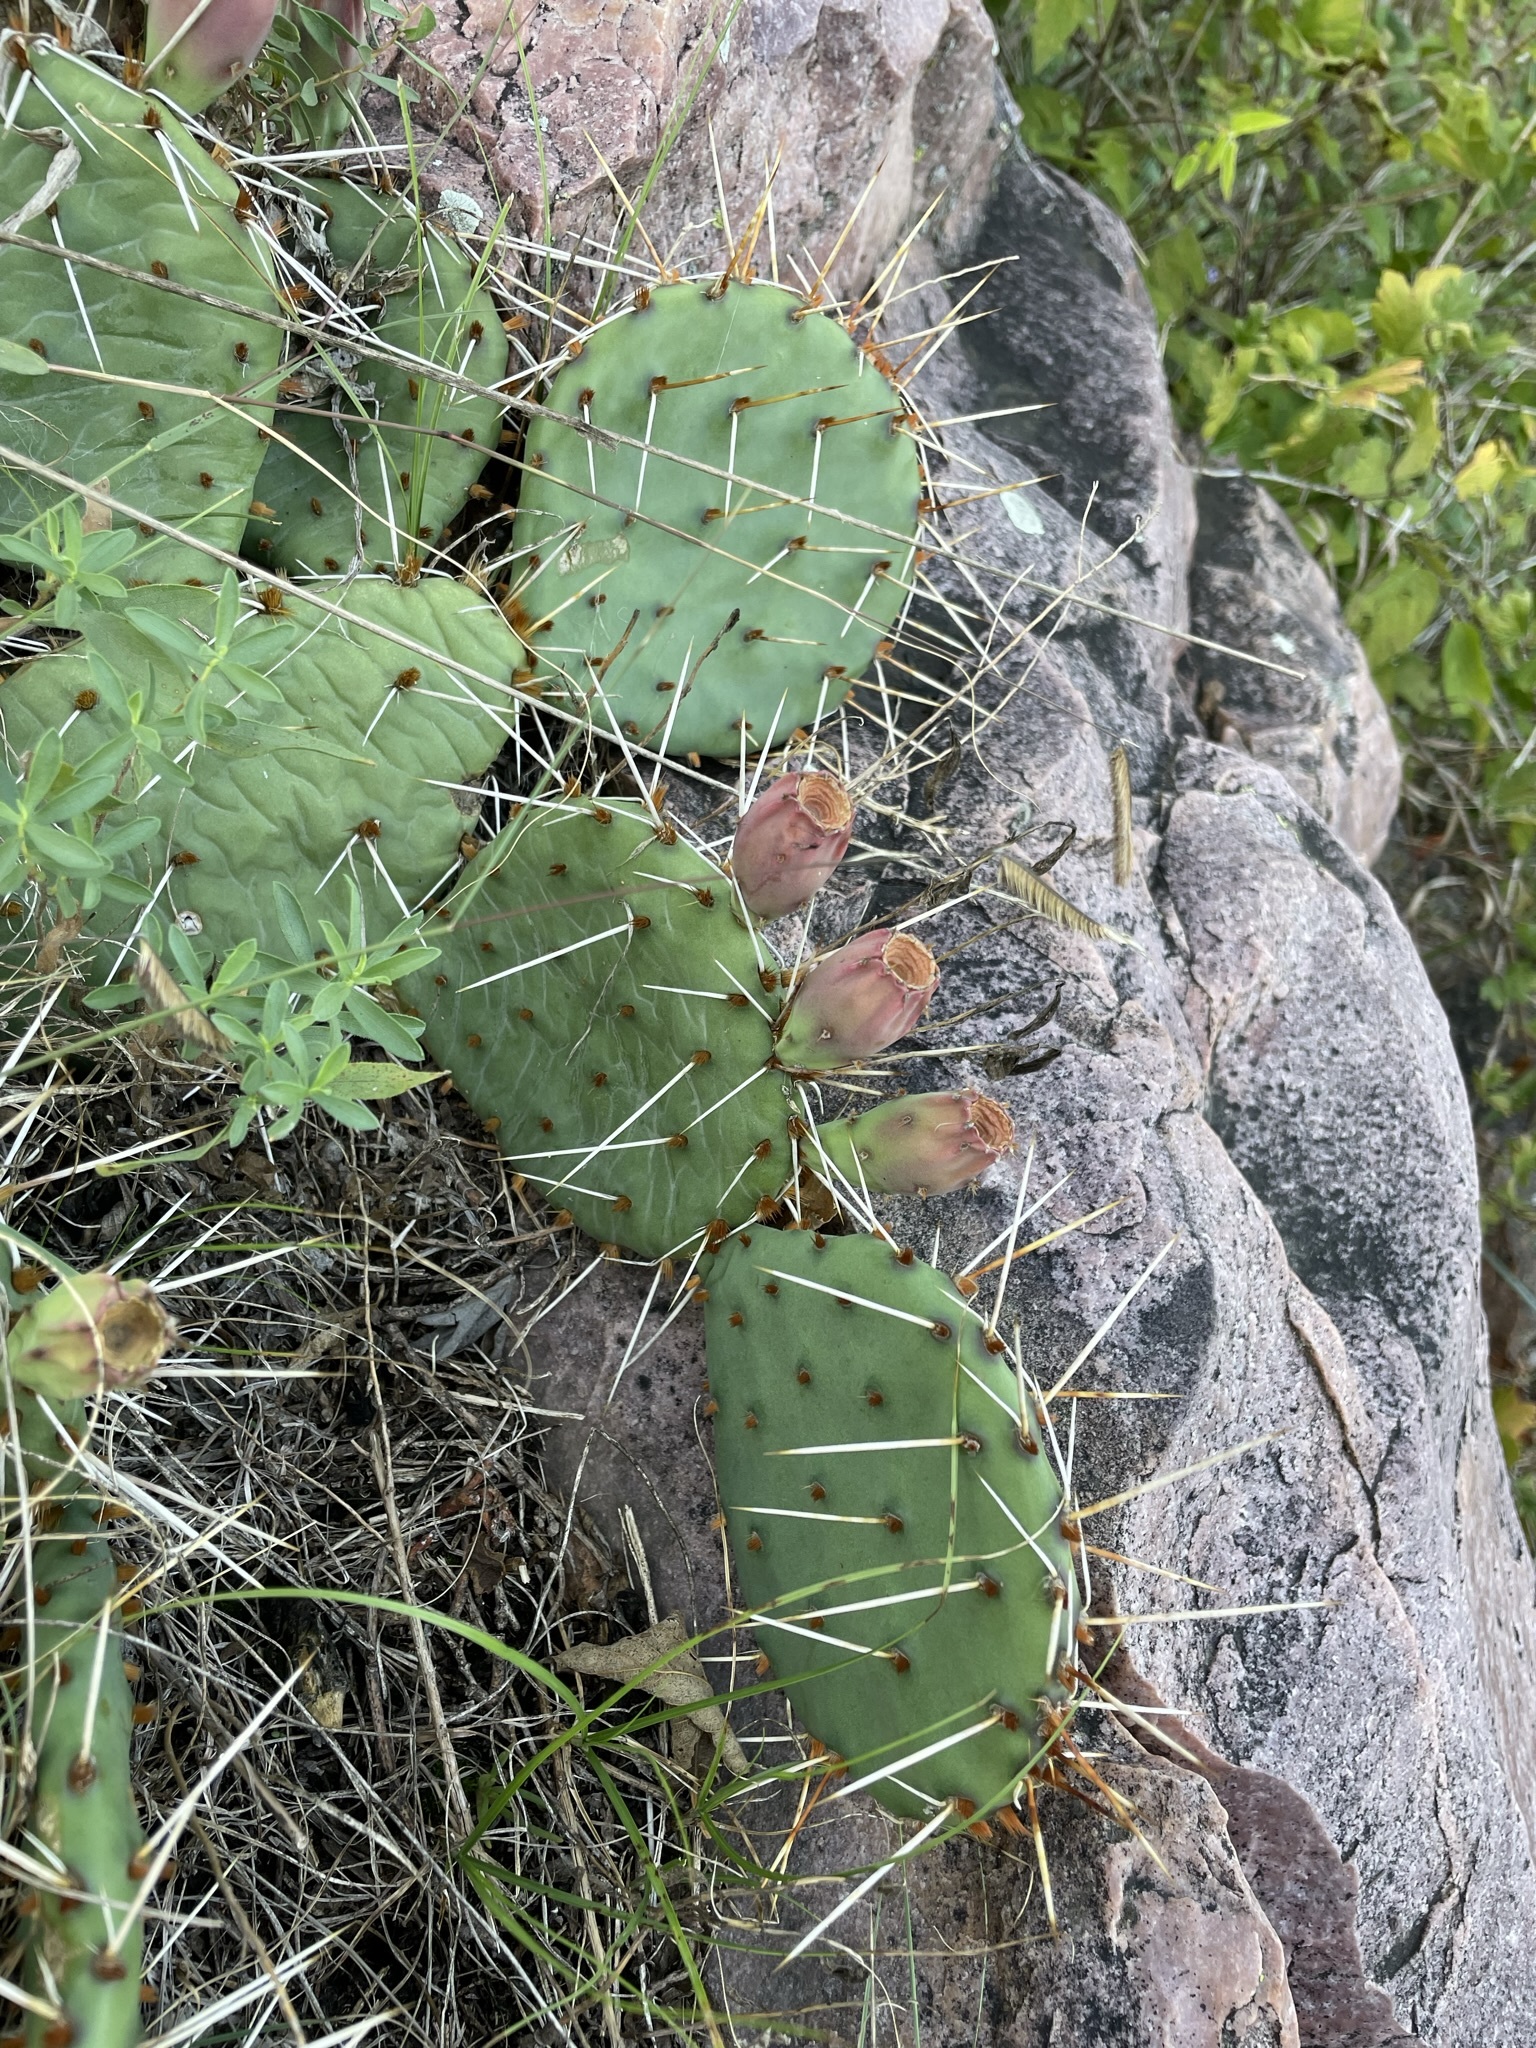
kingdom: Plantae
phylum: Tracheophyta
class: Magnoliopsida
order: Caryophyllales
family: Cactaceae
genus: Opuntia
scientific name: Opuntia macrorhiza
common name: Grassland pricklypear
